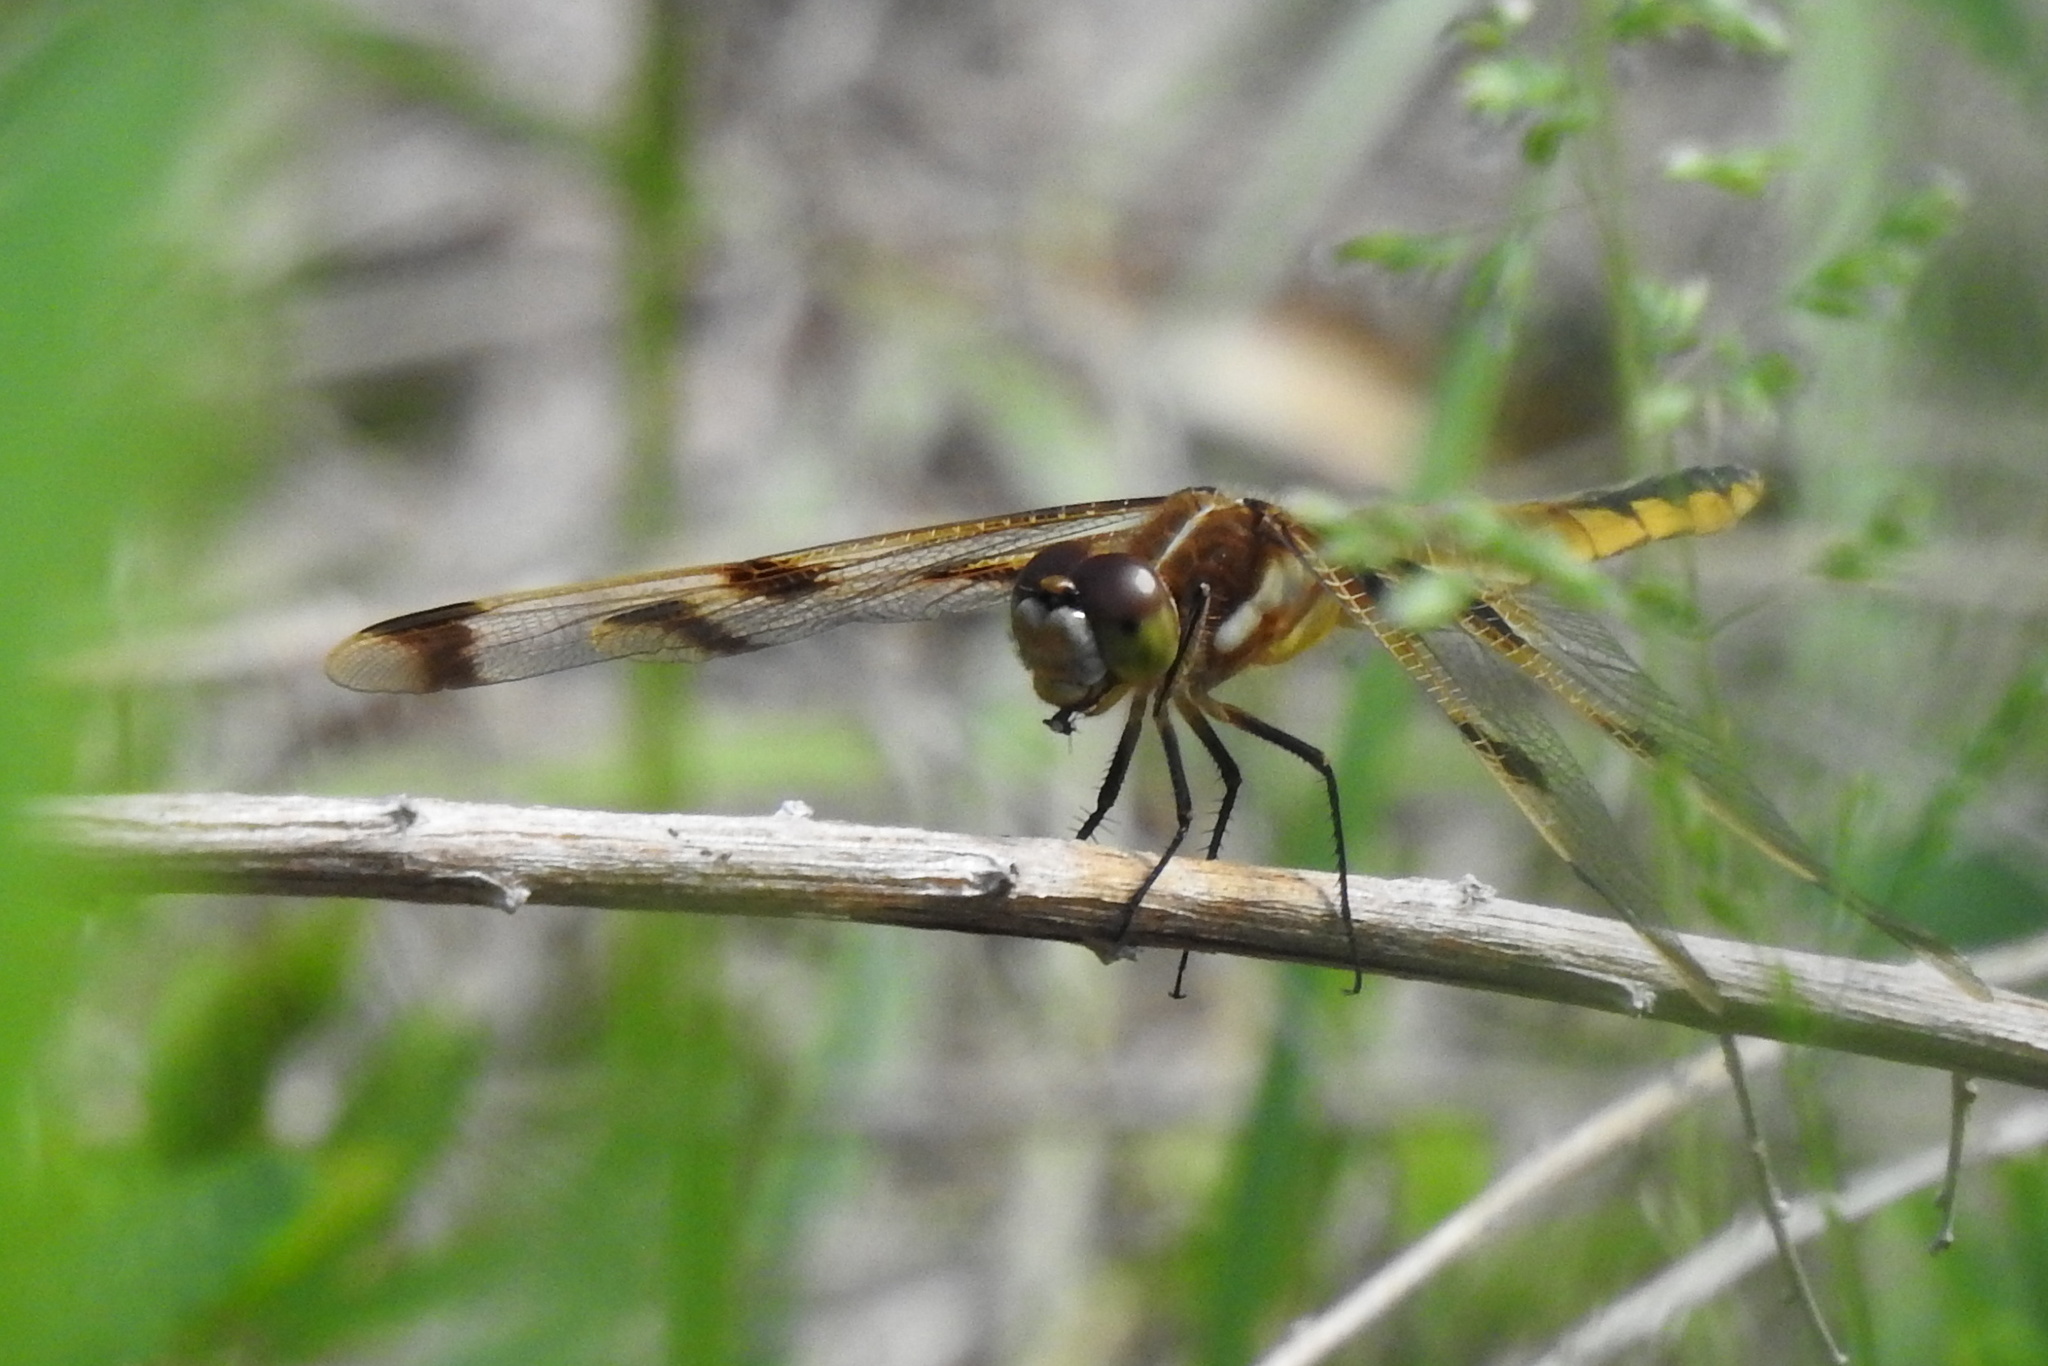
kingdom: Animalia
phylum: Arthropoda
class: Insecta
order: Odonata
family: Libellulidae
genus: Libellula
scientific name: Libellula semifasciata
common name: Painted skimmer
